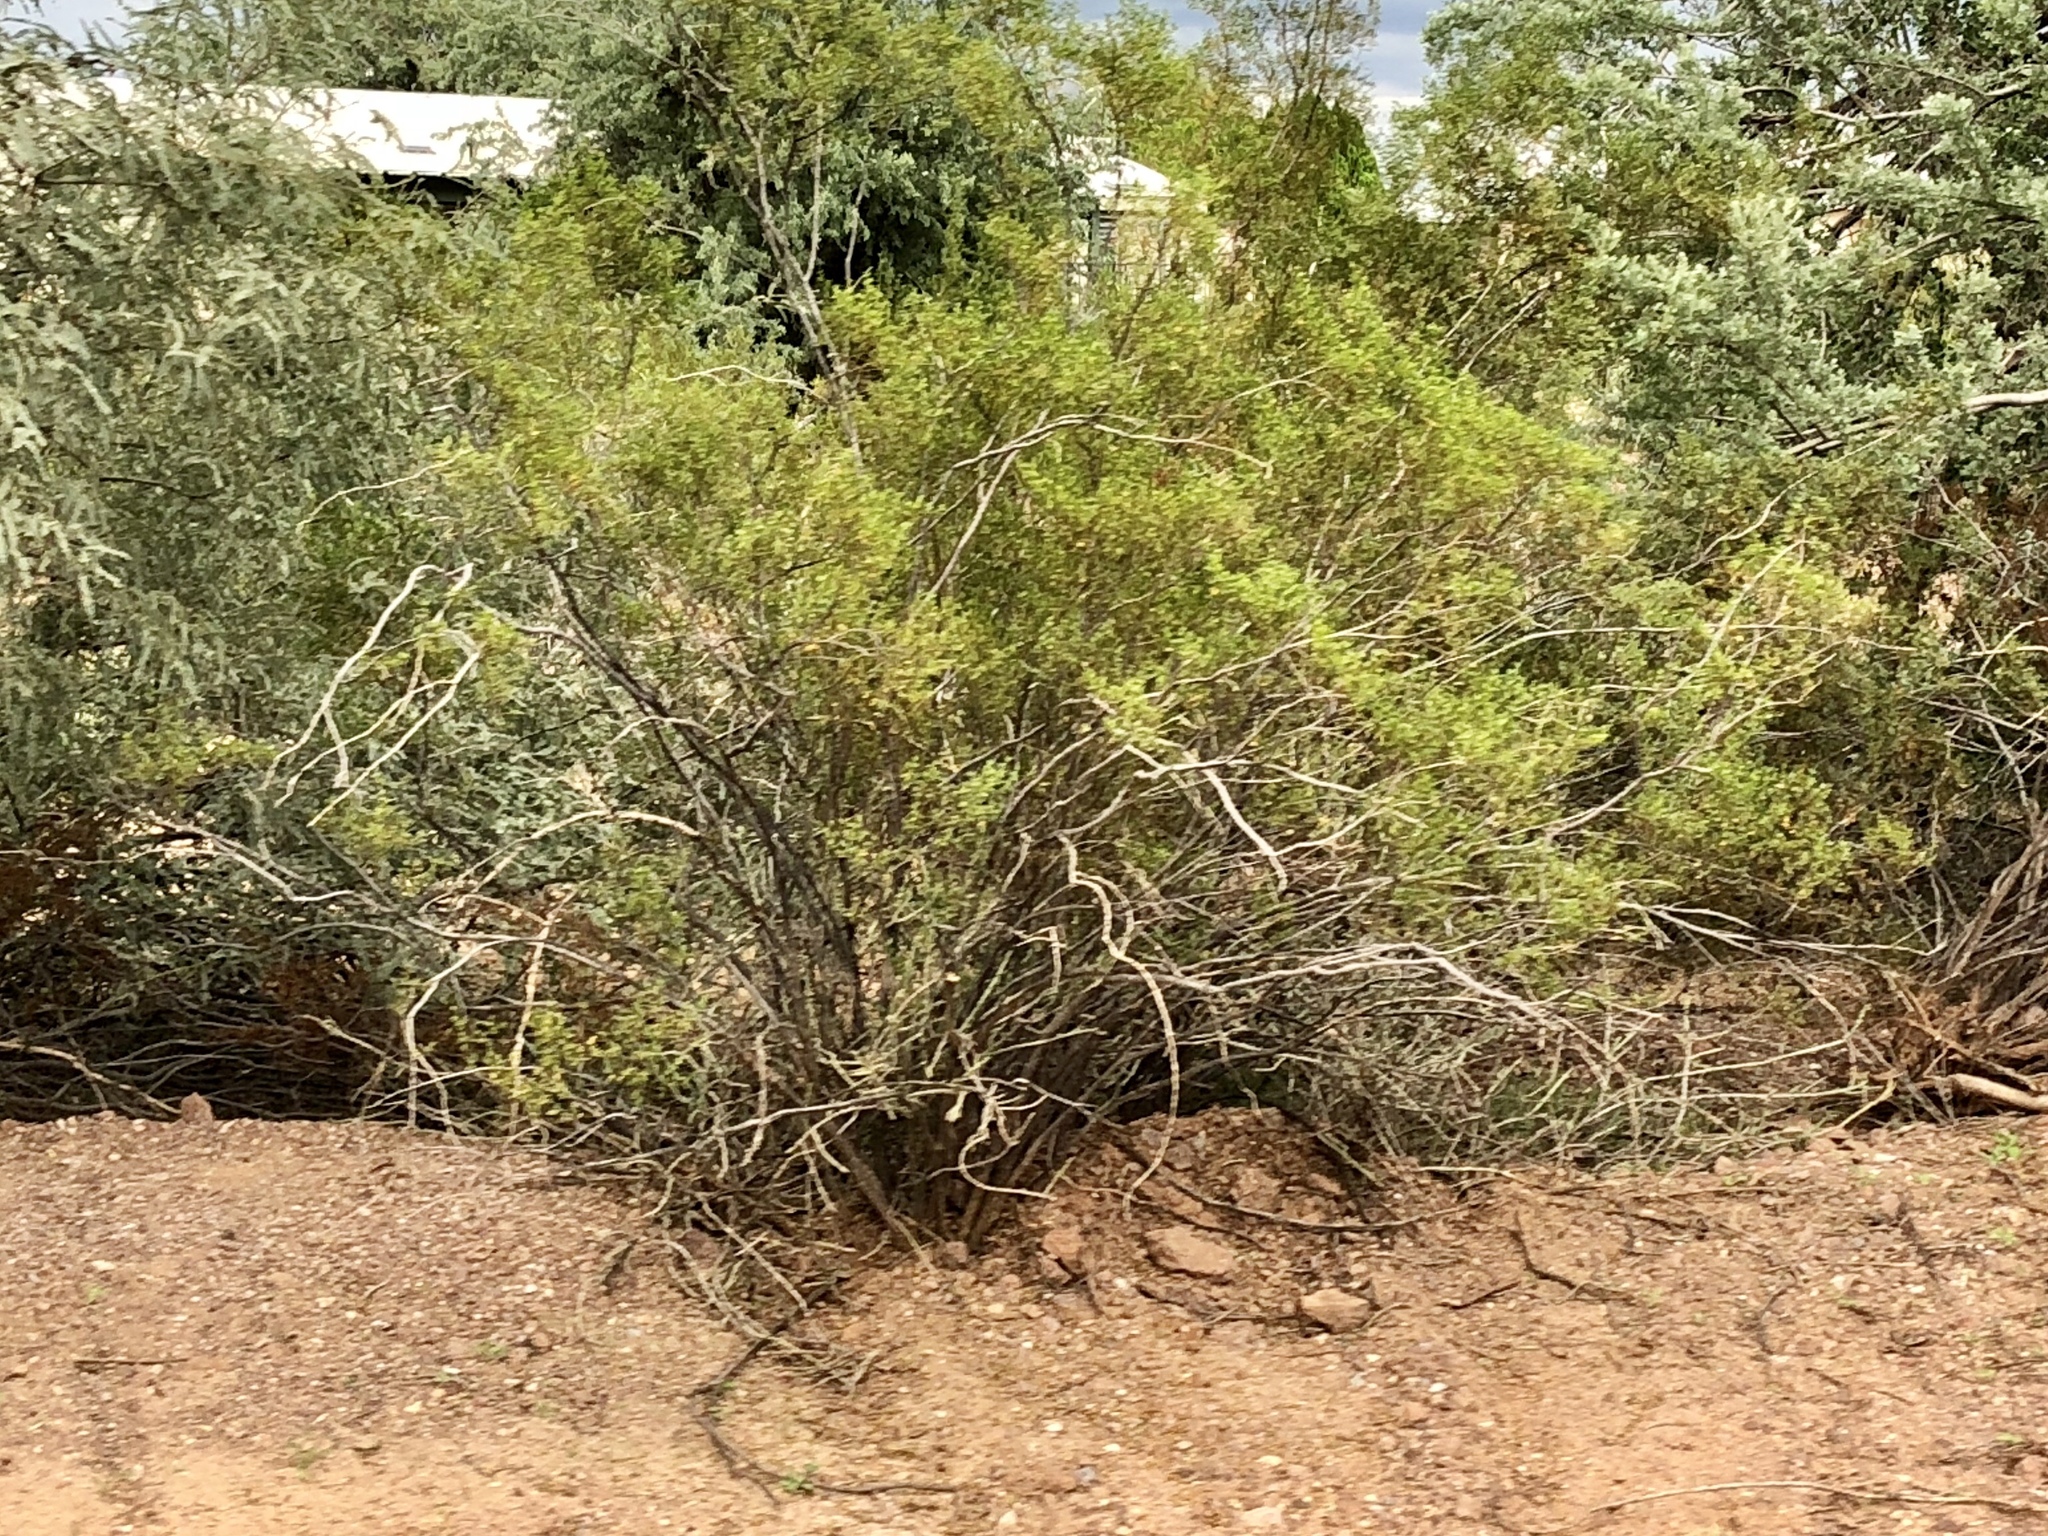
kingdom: Plantae
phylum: Tracheophyta
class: Magnoliopsida
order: Zygophyllales
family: Zygophyllaceae
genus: Larrea
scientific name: Larrea tridentata
